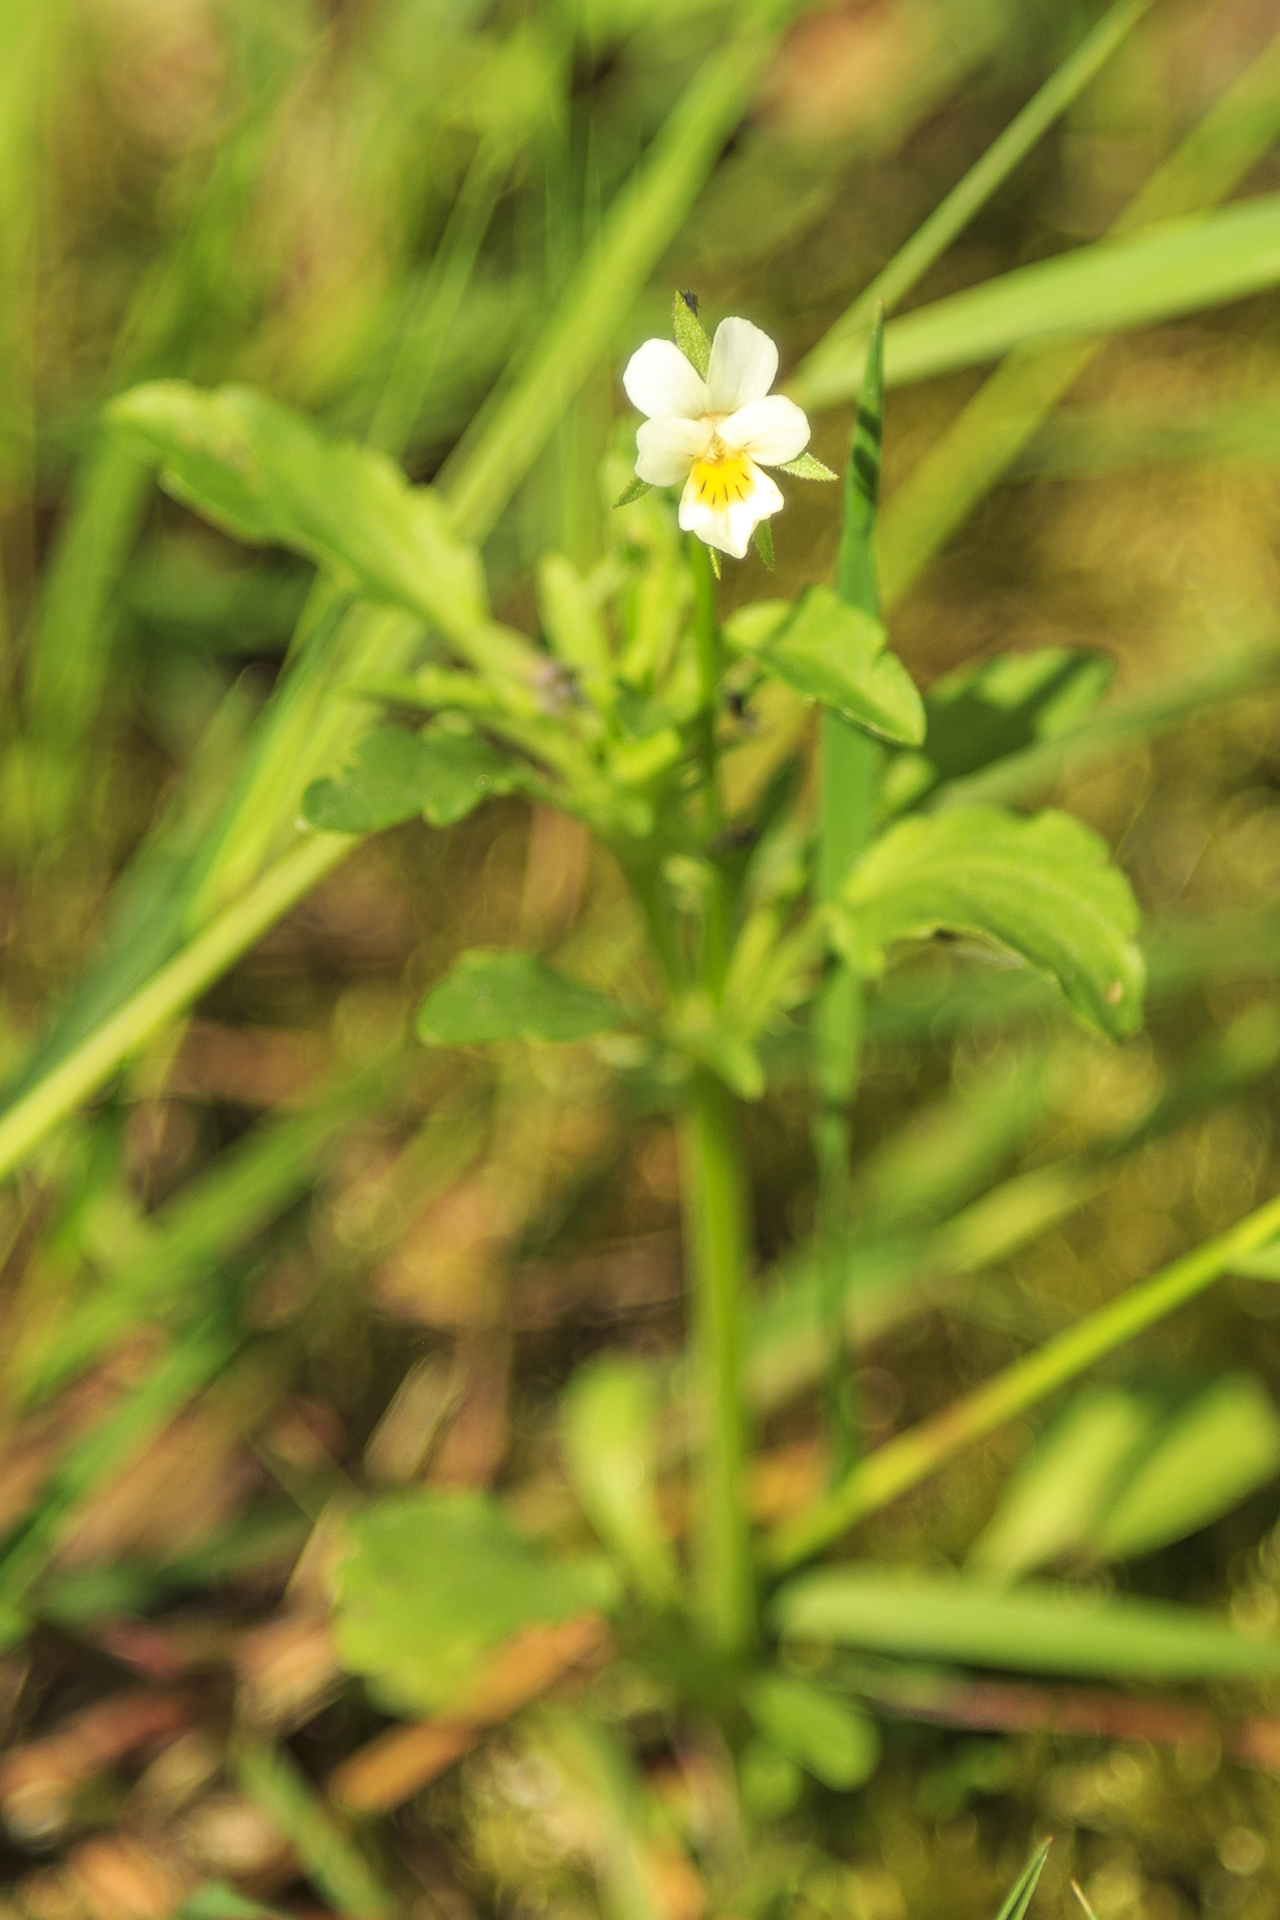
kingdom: Plantae
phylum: Tracheophyta
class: Magnoliopsida
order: Malpighiales
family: Violaceae
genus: Viola
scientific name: Viola arvensis
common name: Field pansy
